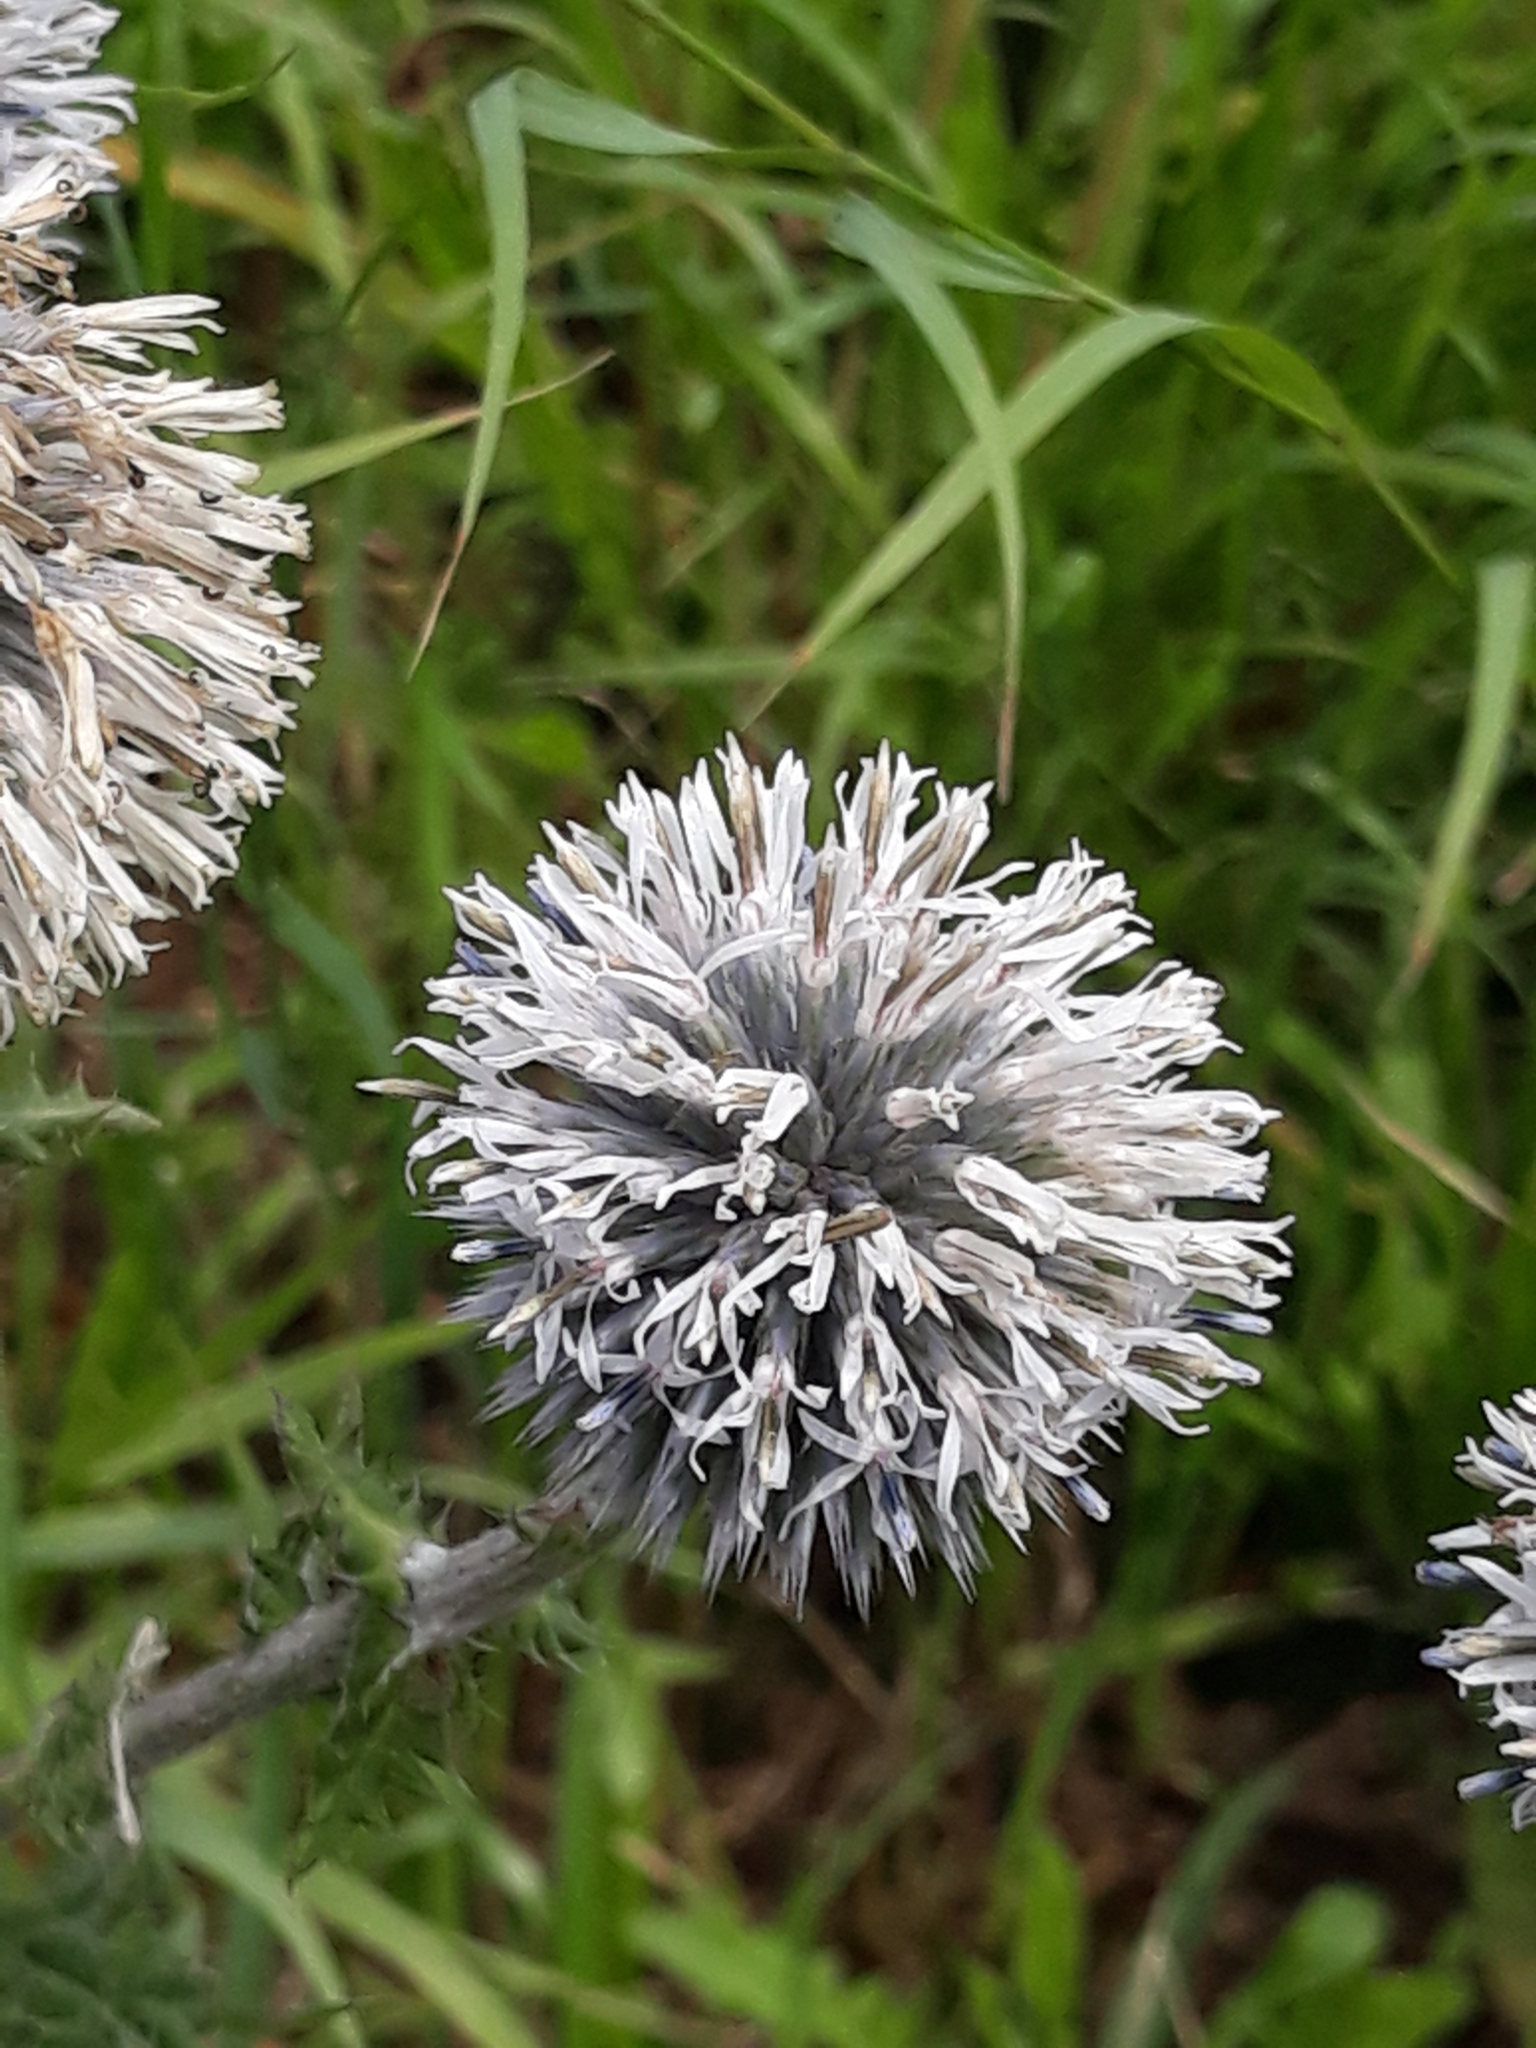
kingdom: Plantae
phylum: Tracheophyta
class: Magnoliopsida
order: Asterales
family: Asteraceae
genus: Echinops
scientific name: Echinops sphaerocephalus
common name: Glandular globe-thistle
